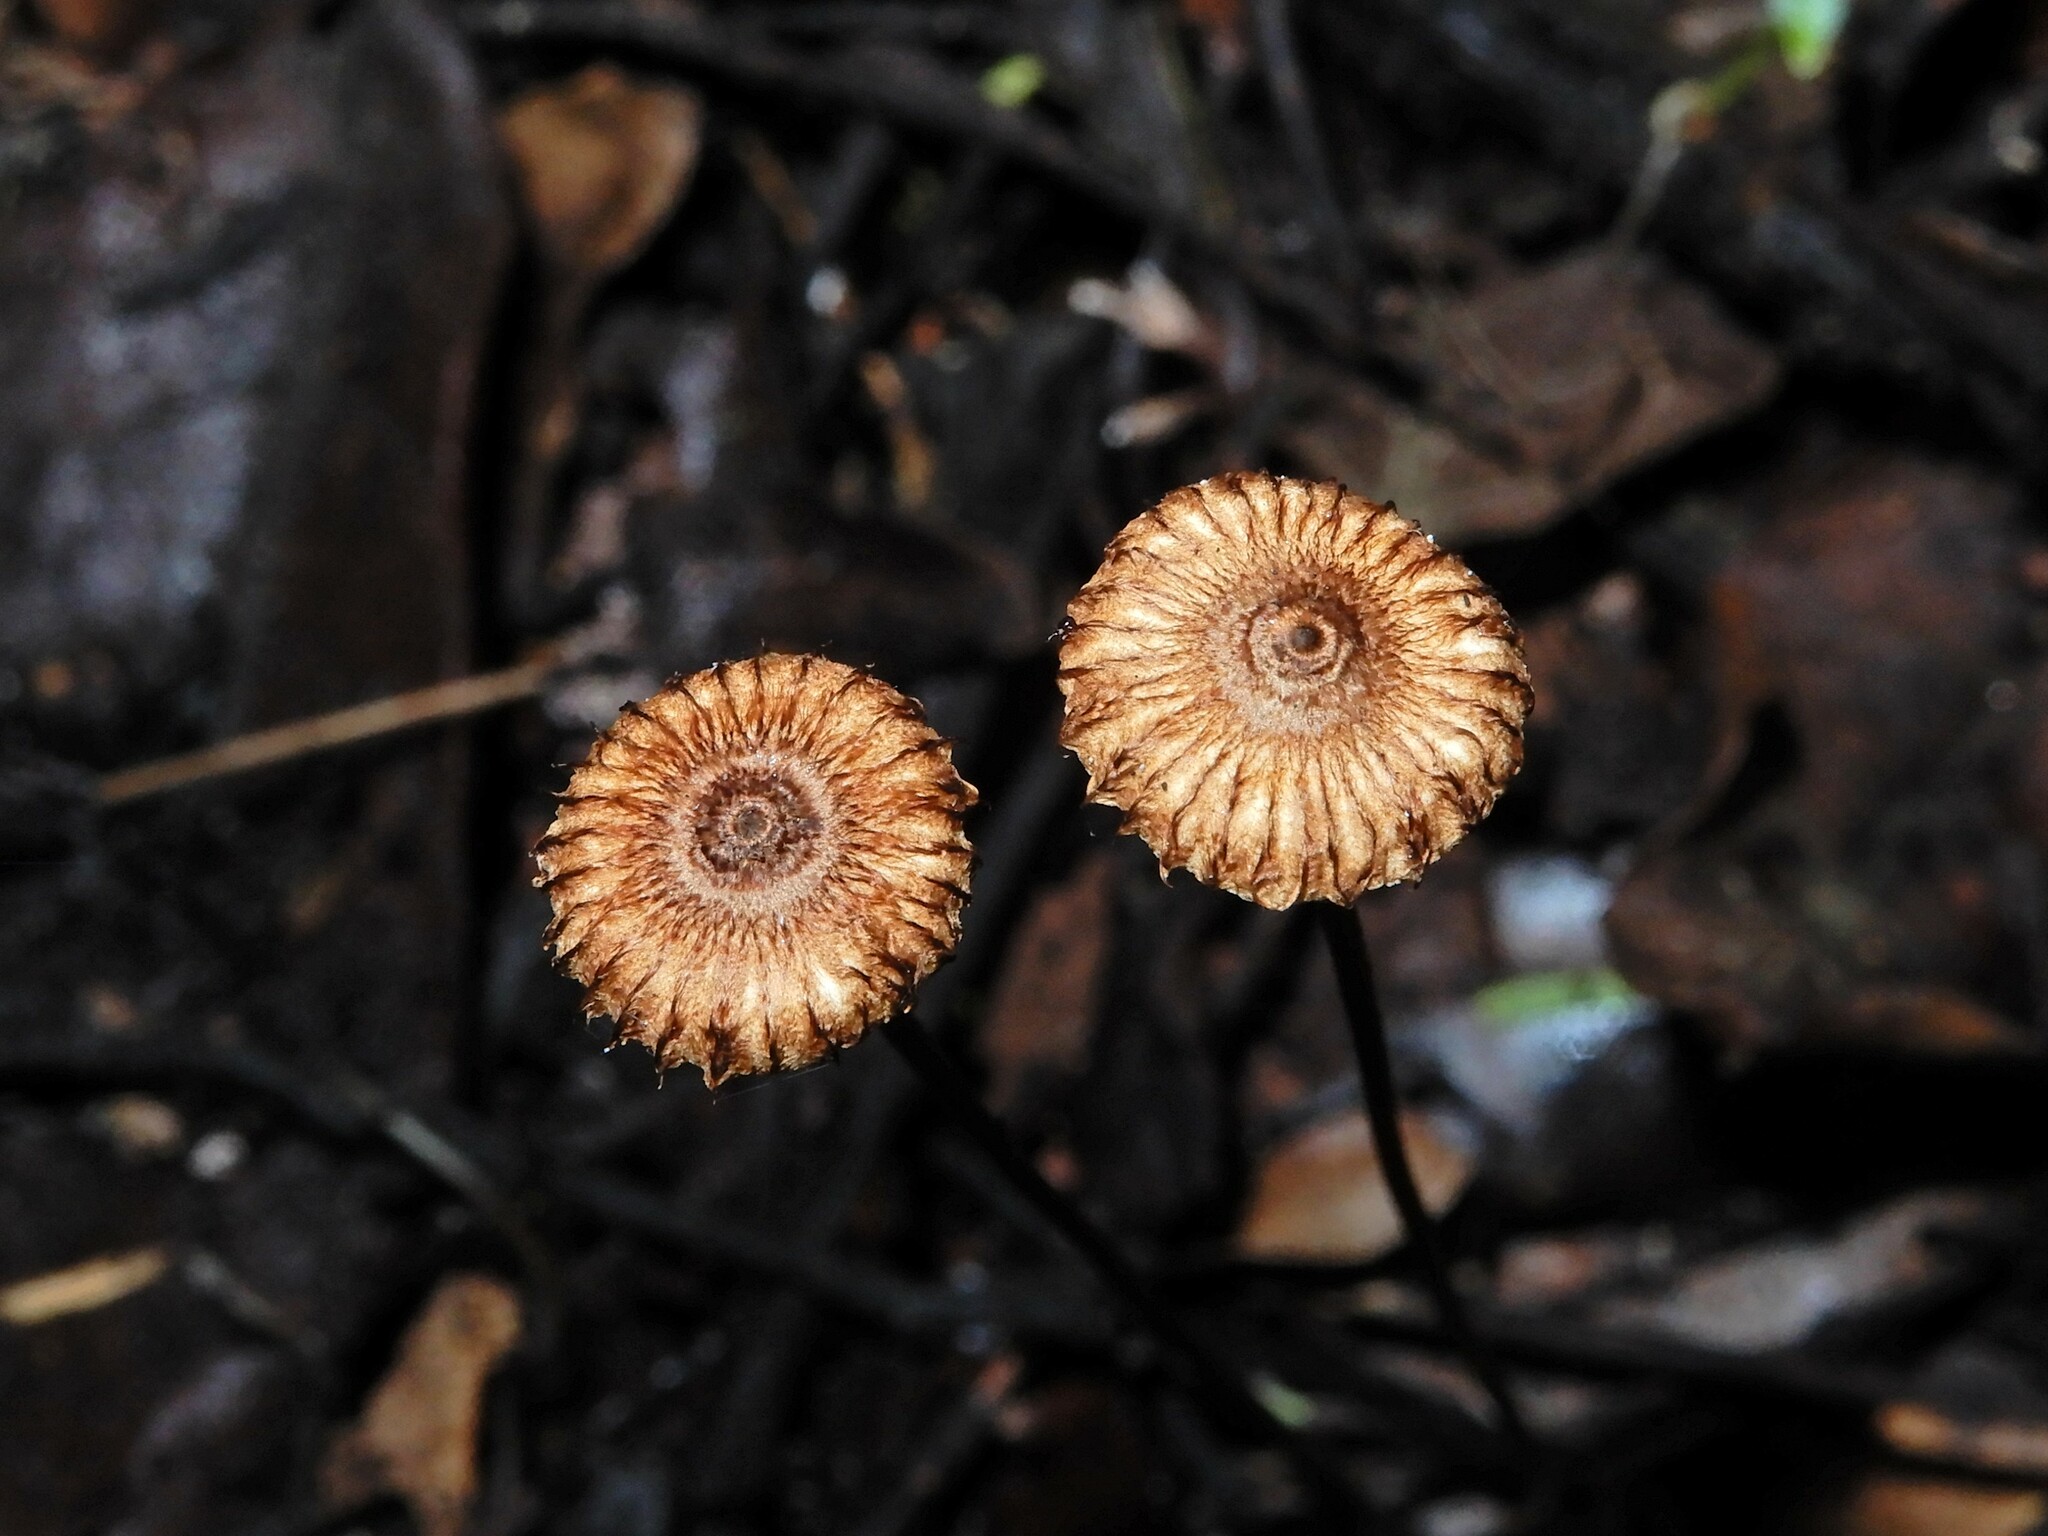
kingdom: Fungi
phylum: Basidiomycota
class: Agaricomycetes
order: Agaricales
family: Marasmiaceae
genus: Crinipellis
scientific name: Crinipellis procera
